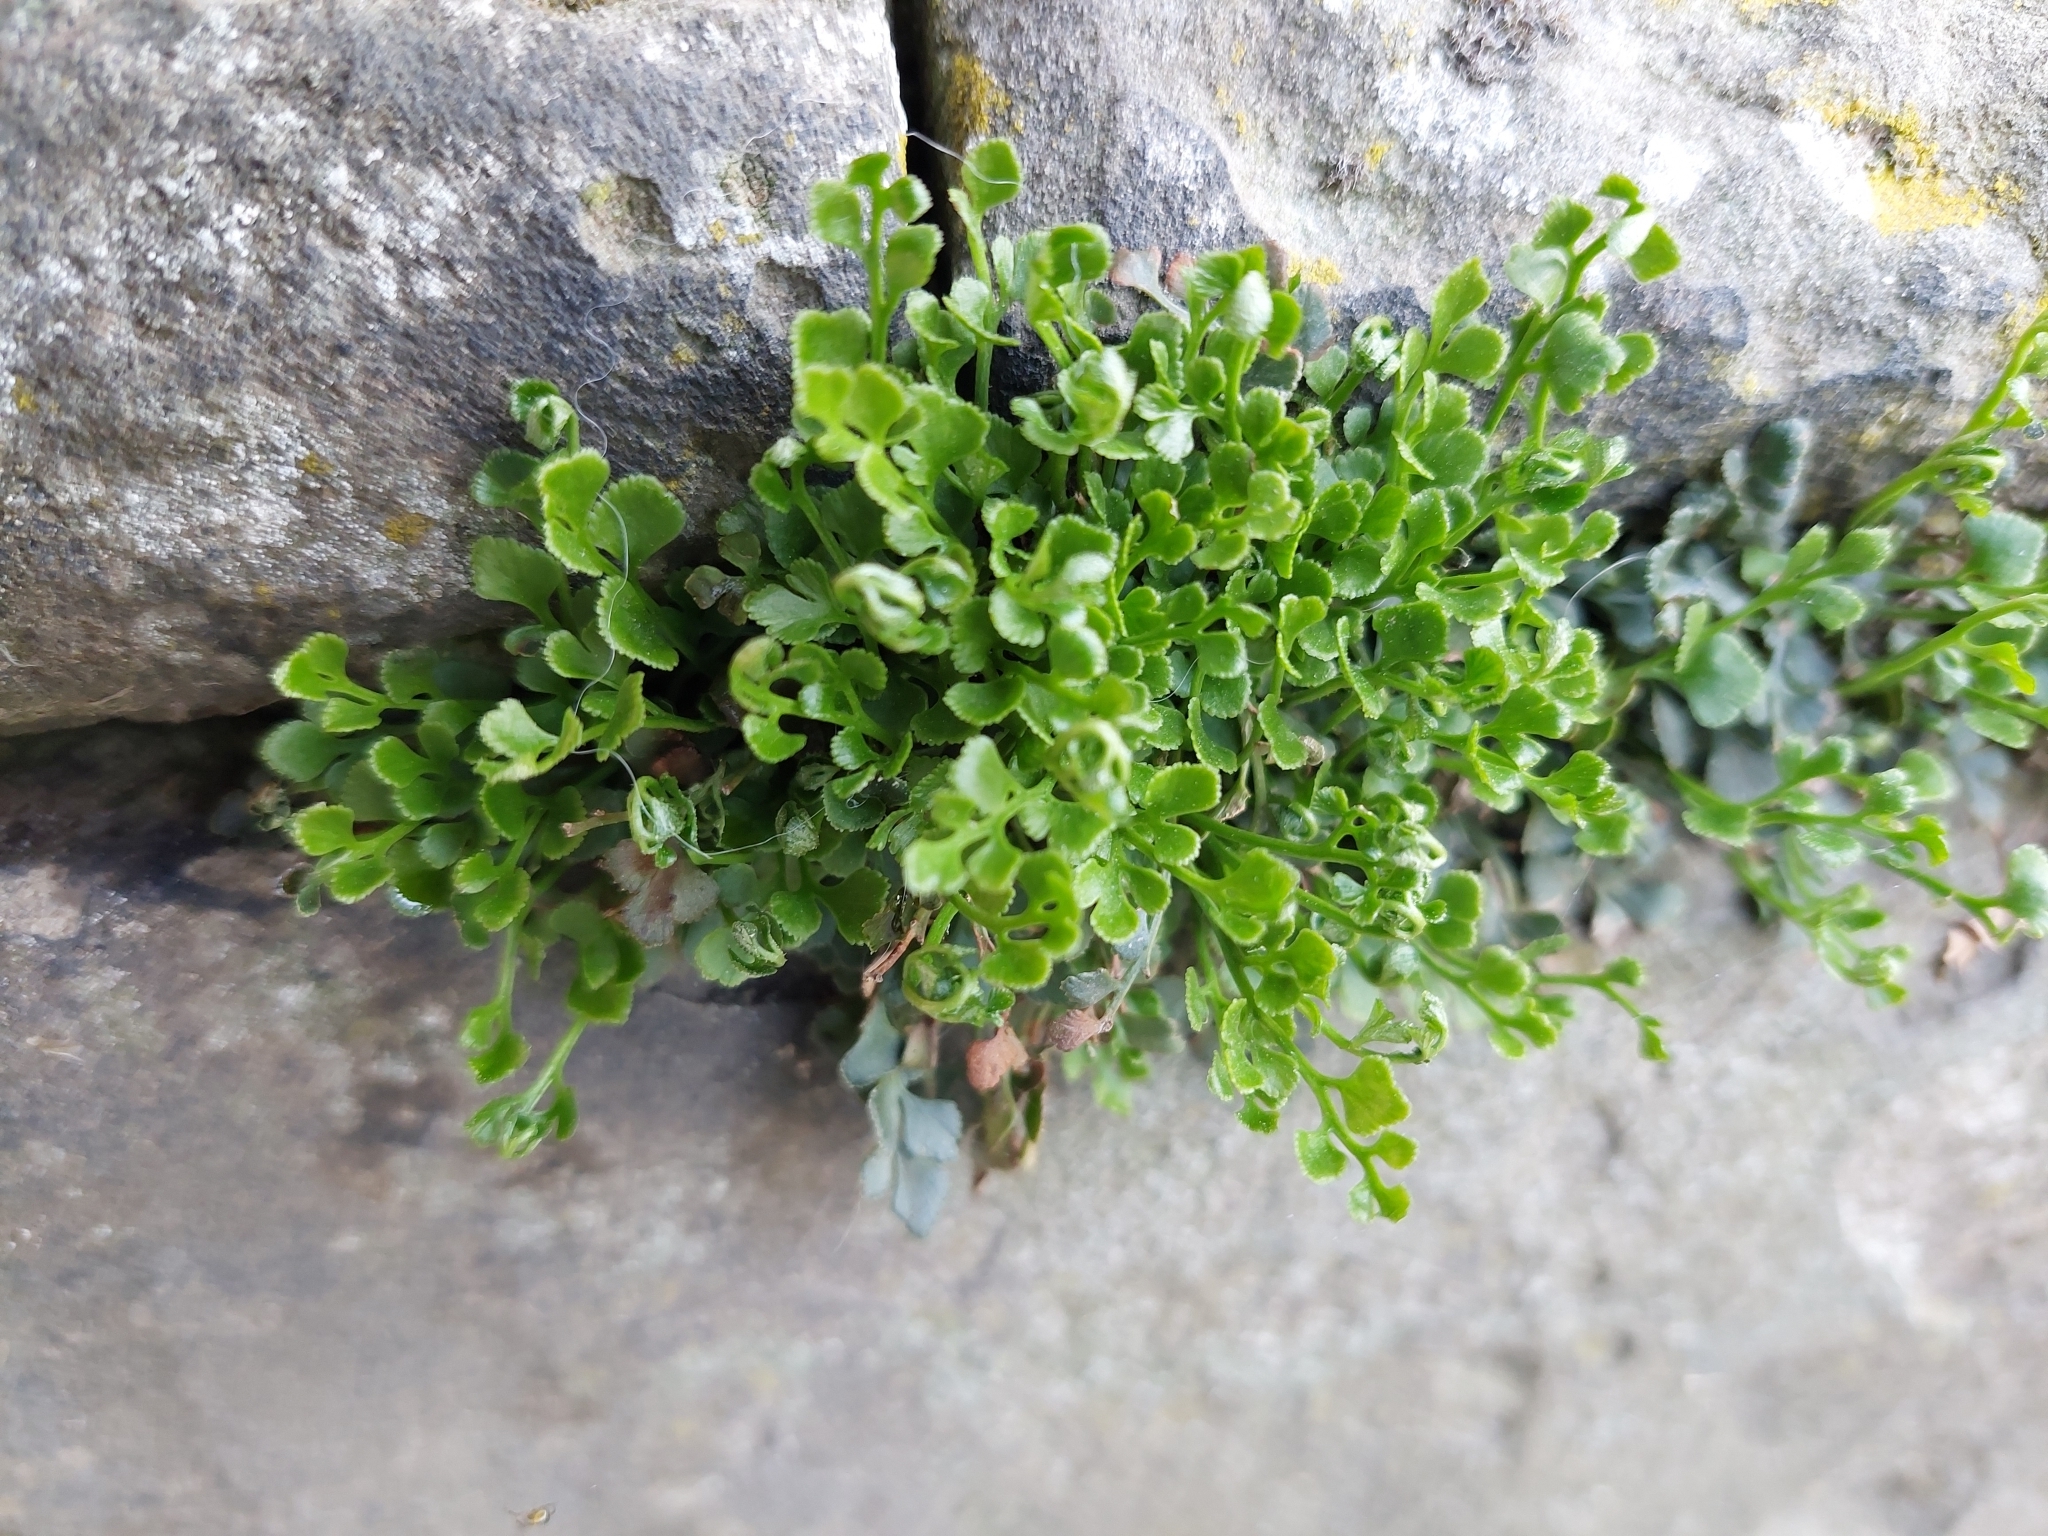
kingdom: Plantae
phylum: Tracheophyta
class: Polypodiopsida
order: Polypodiales
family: Aspleniaceae
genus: Asplenium
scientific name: Asplenium ruta-muraria
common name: Wall-rue
